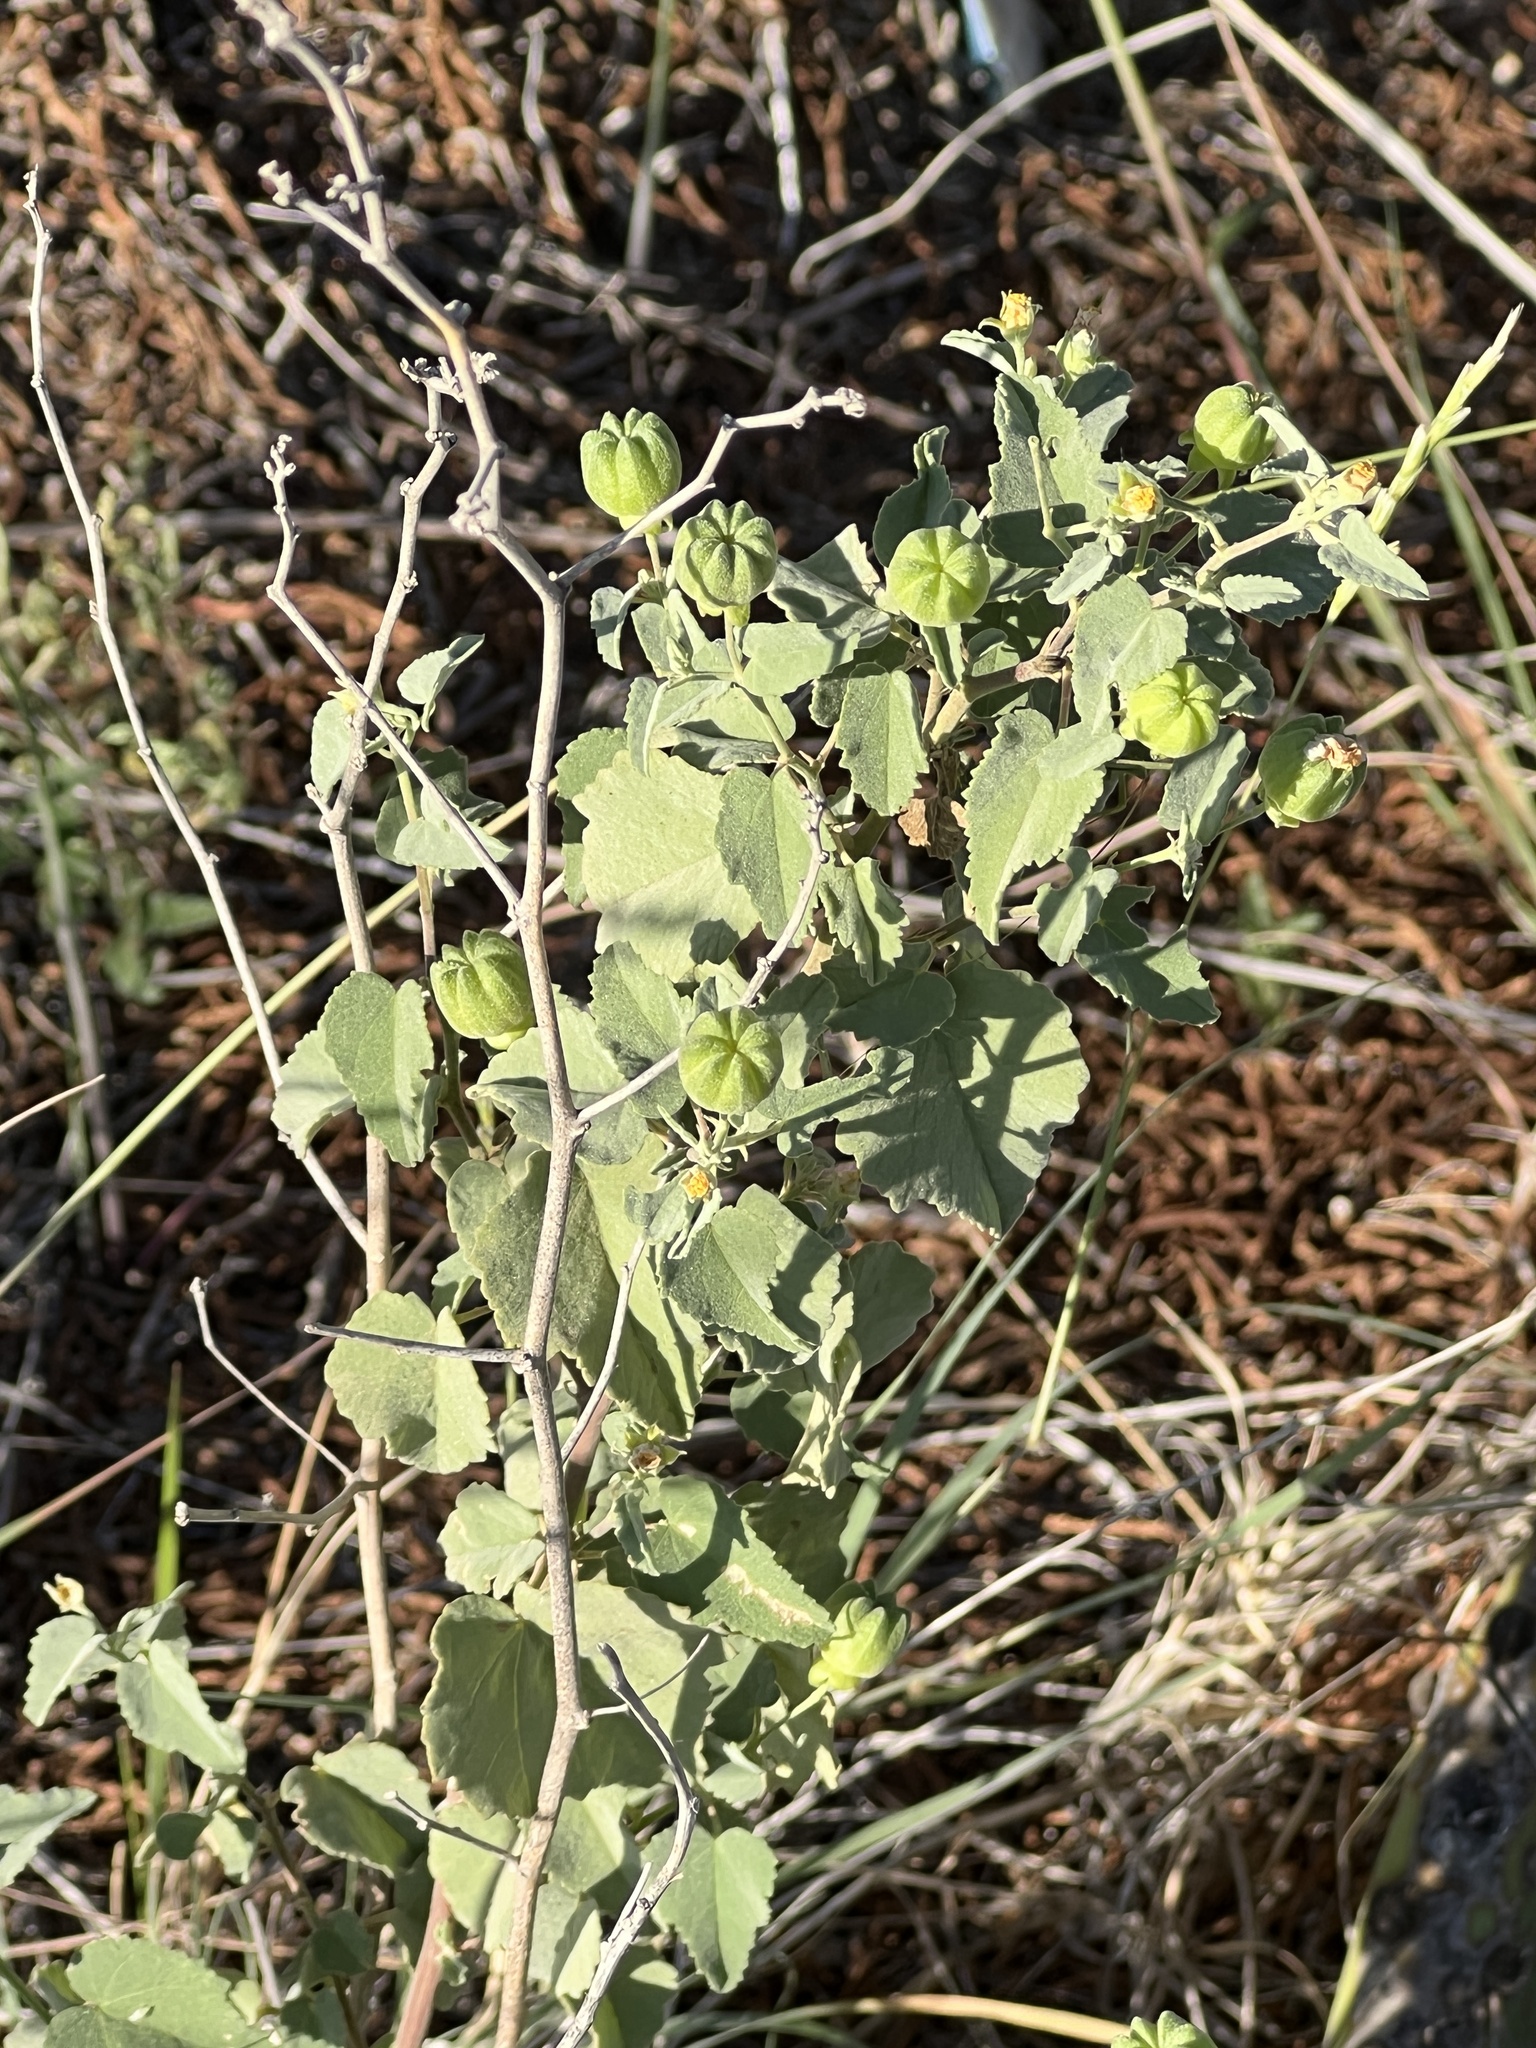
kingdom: Plantae
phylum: Tracheophyta
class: Magnoliopsida
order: Malvales
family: Malvaceae
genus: Abutilon
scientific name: Abutilon fruticosum
